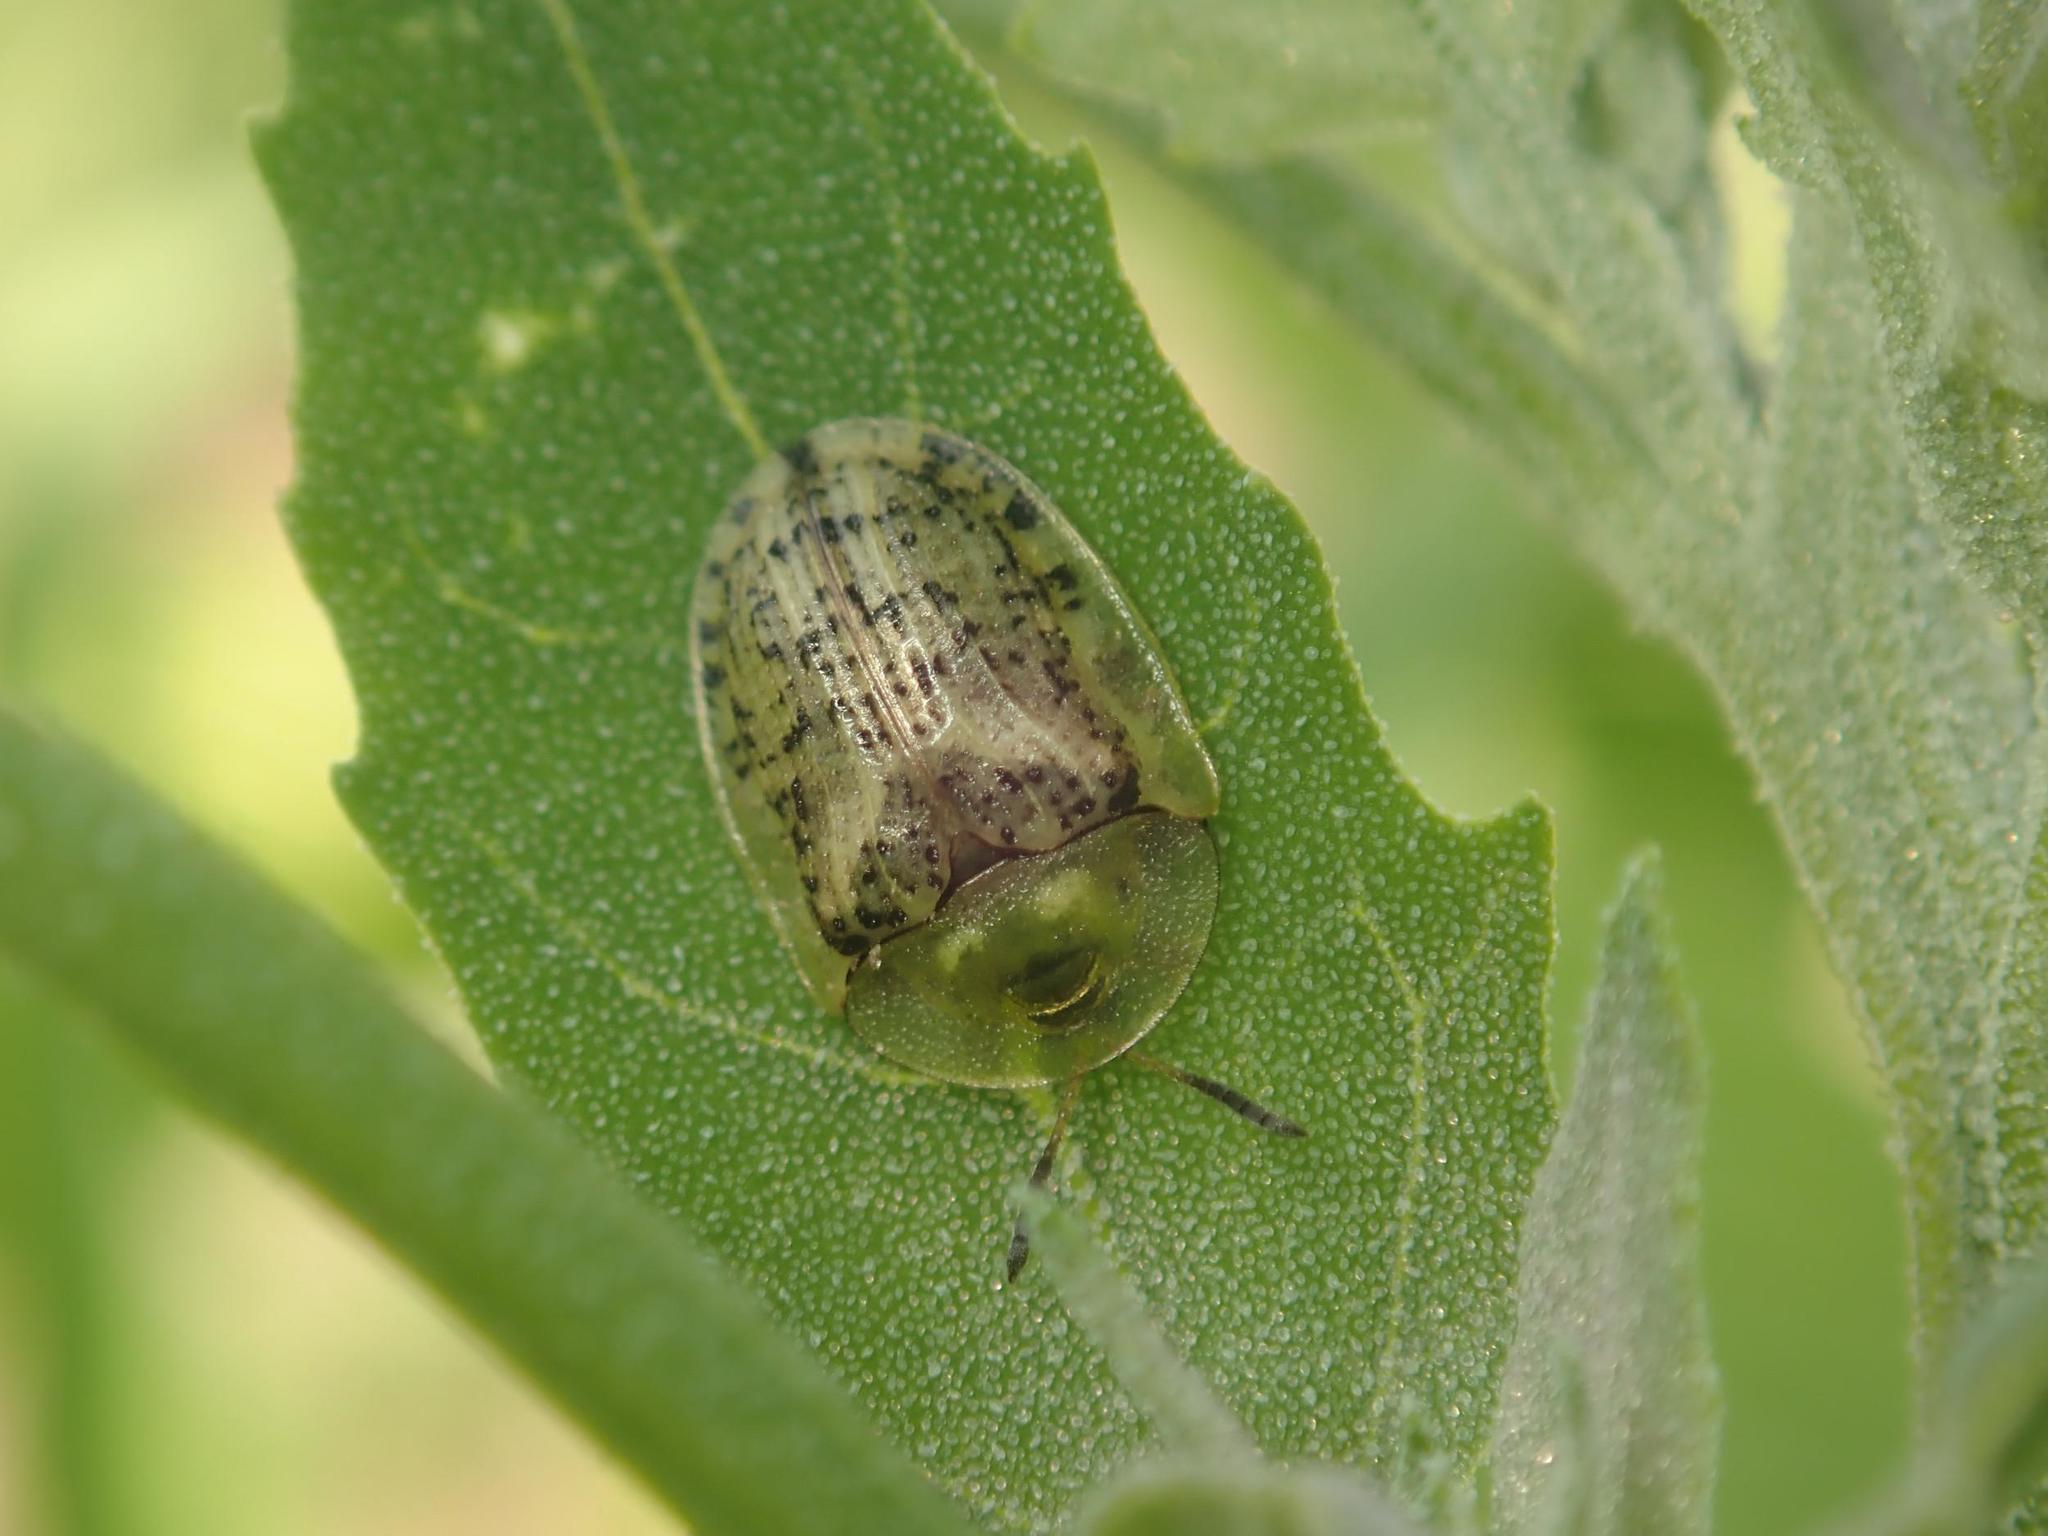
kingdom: Animalia
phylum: Arthropoda
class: Insecta
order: Coleoptera
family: Chrysomelidae
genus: Cassida
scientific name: Cassida nebulosa
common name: Beet tortoise beetle
